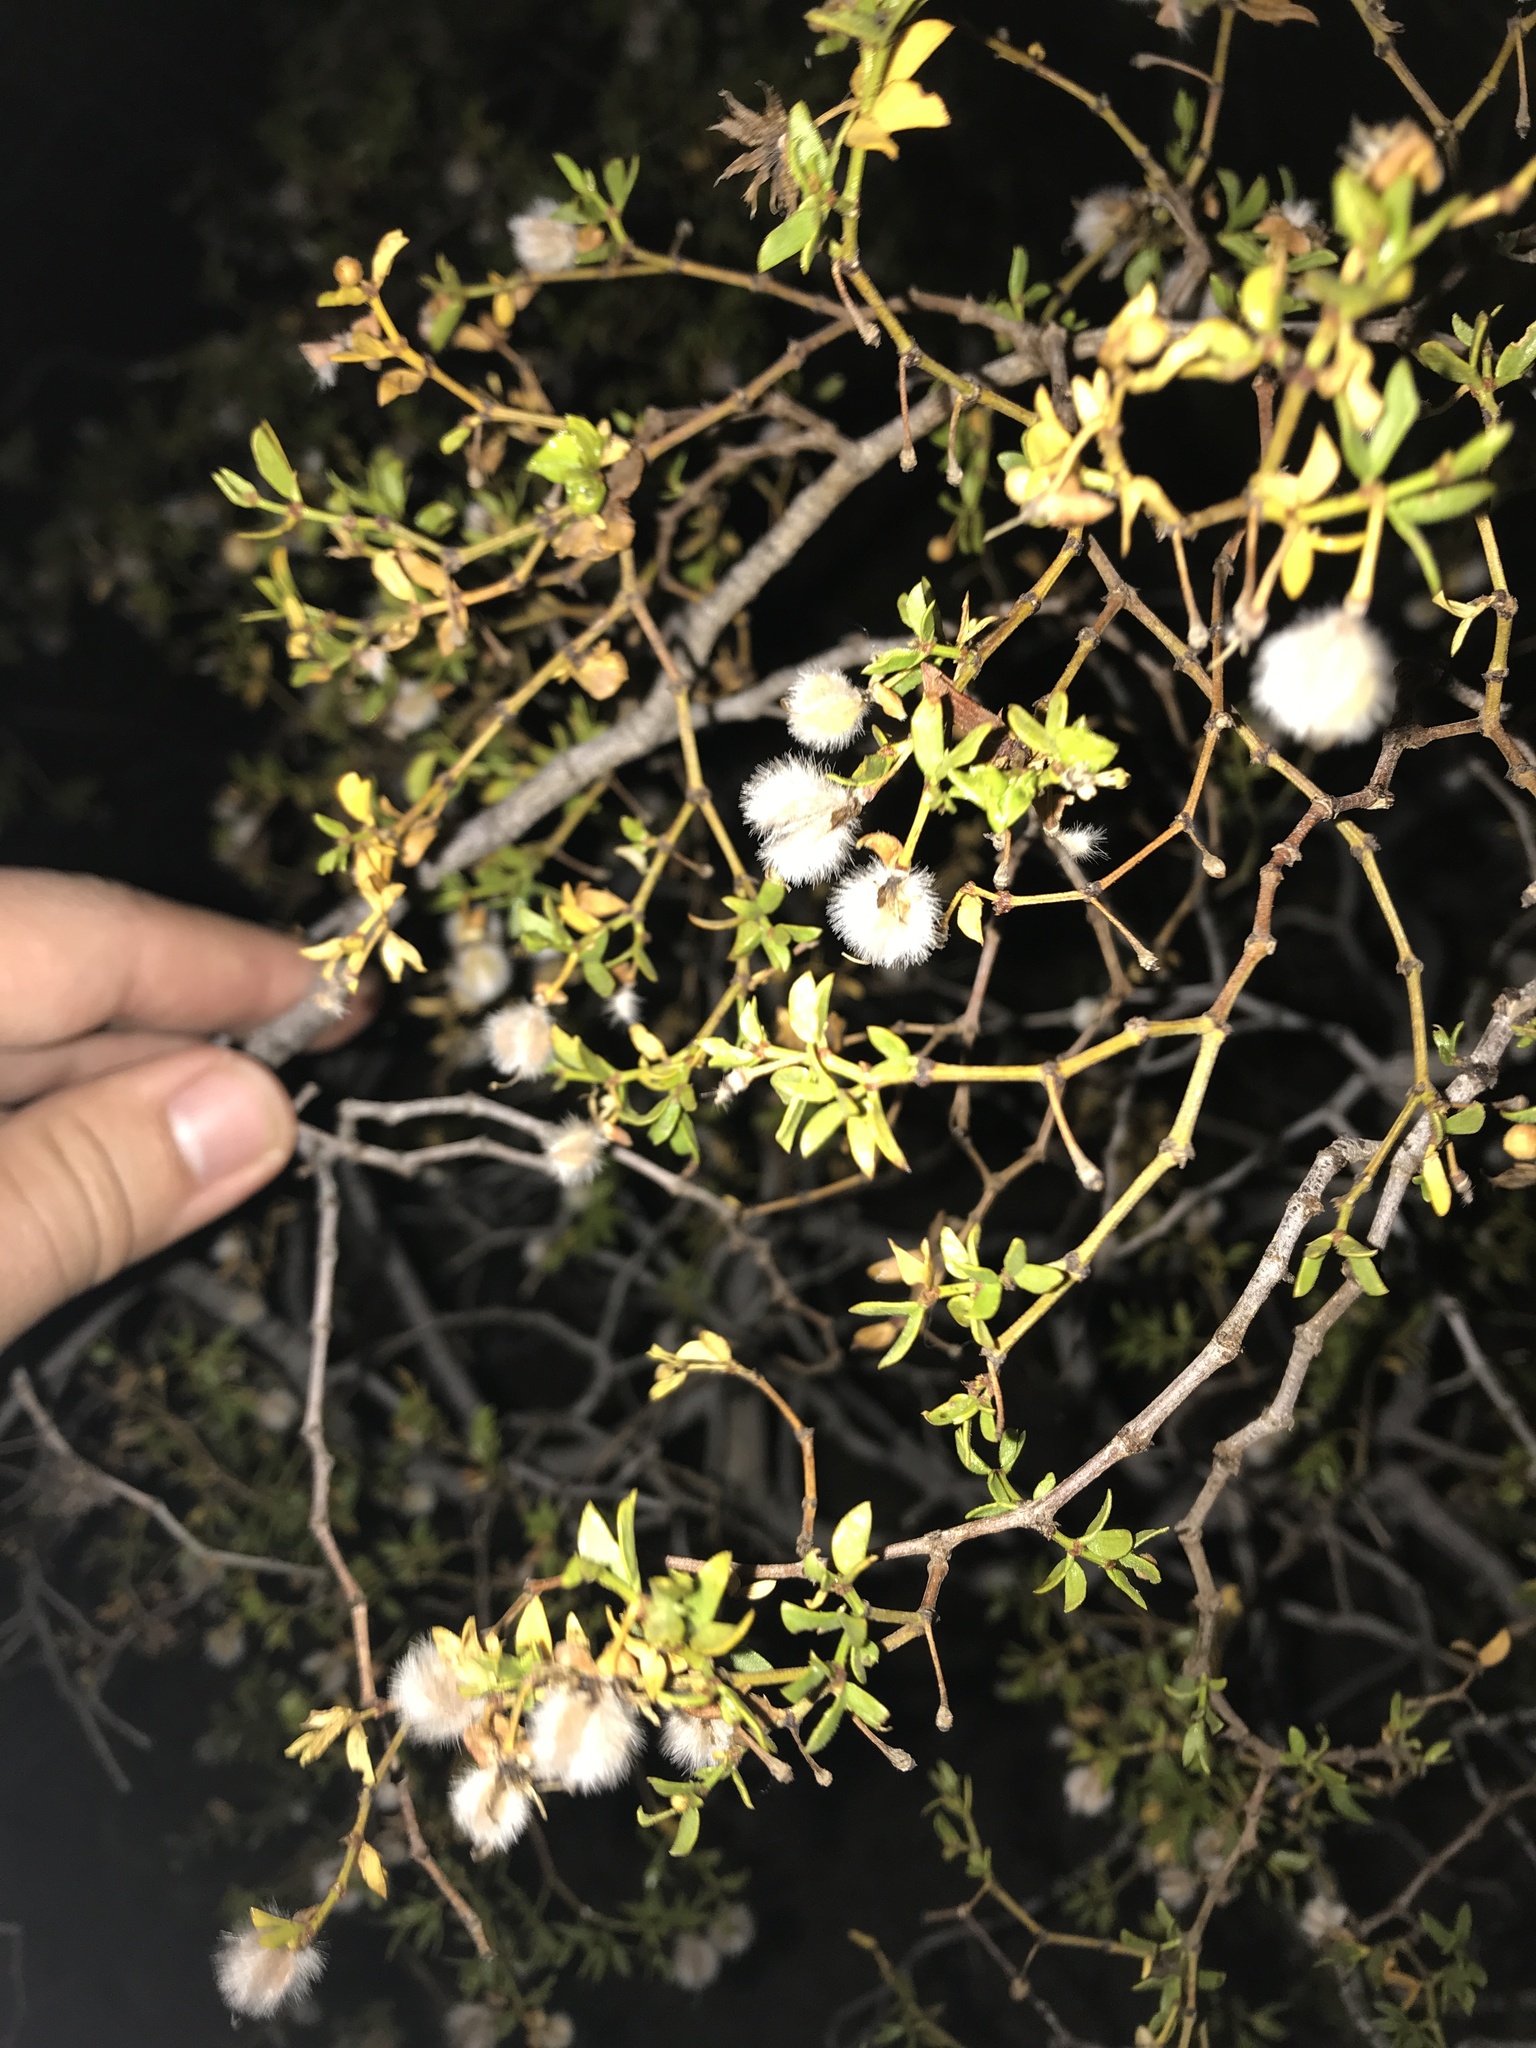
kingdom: Plantae
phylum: Tracheophyta
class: Magnoliopsida
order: Zygophyllales
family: Zygophyllaceae
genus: Larrea
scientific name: Larrea tridentata
